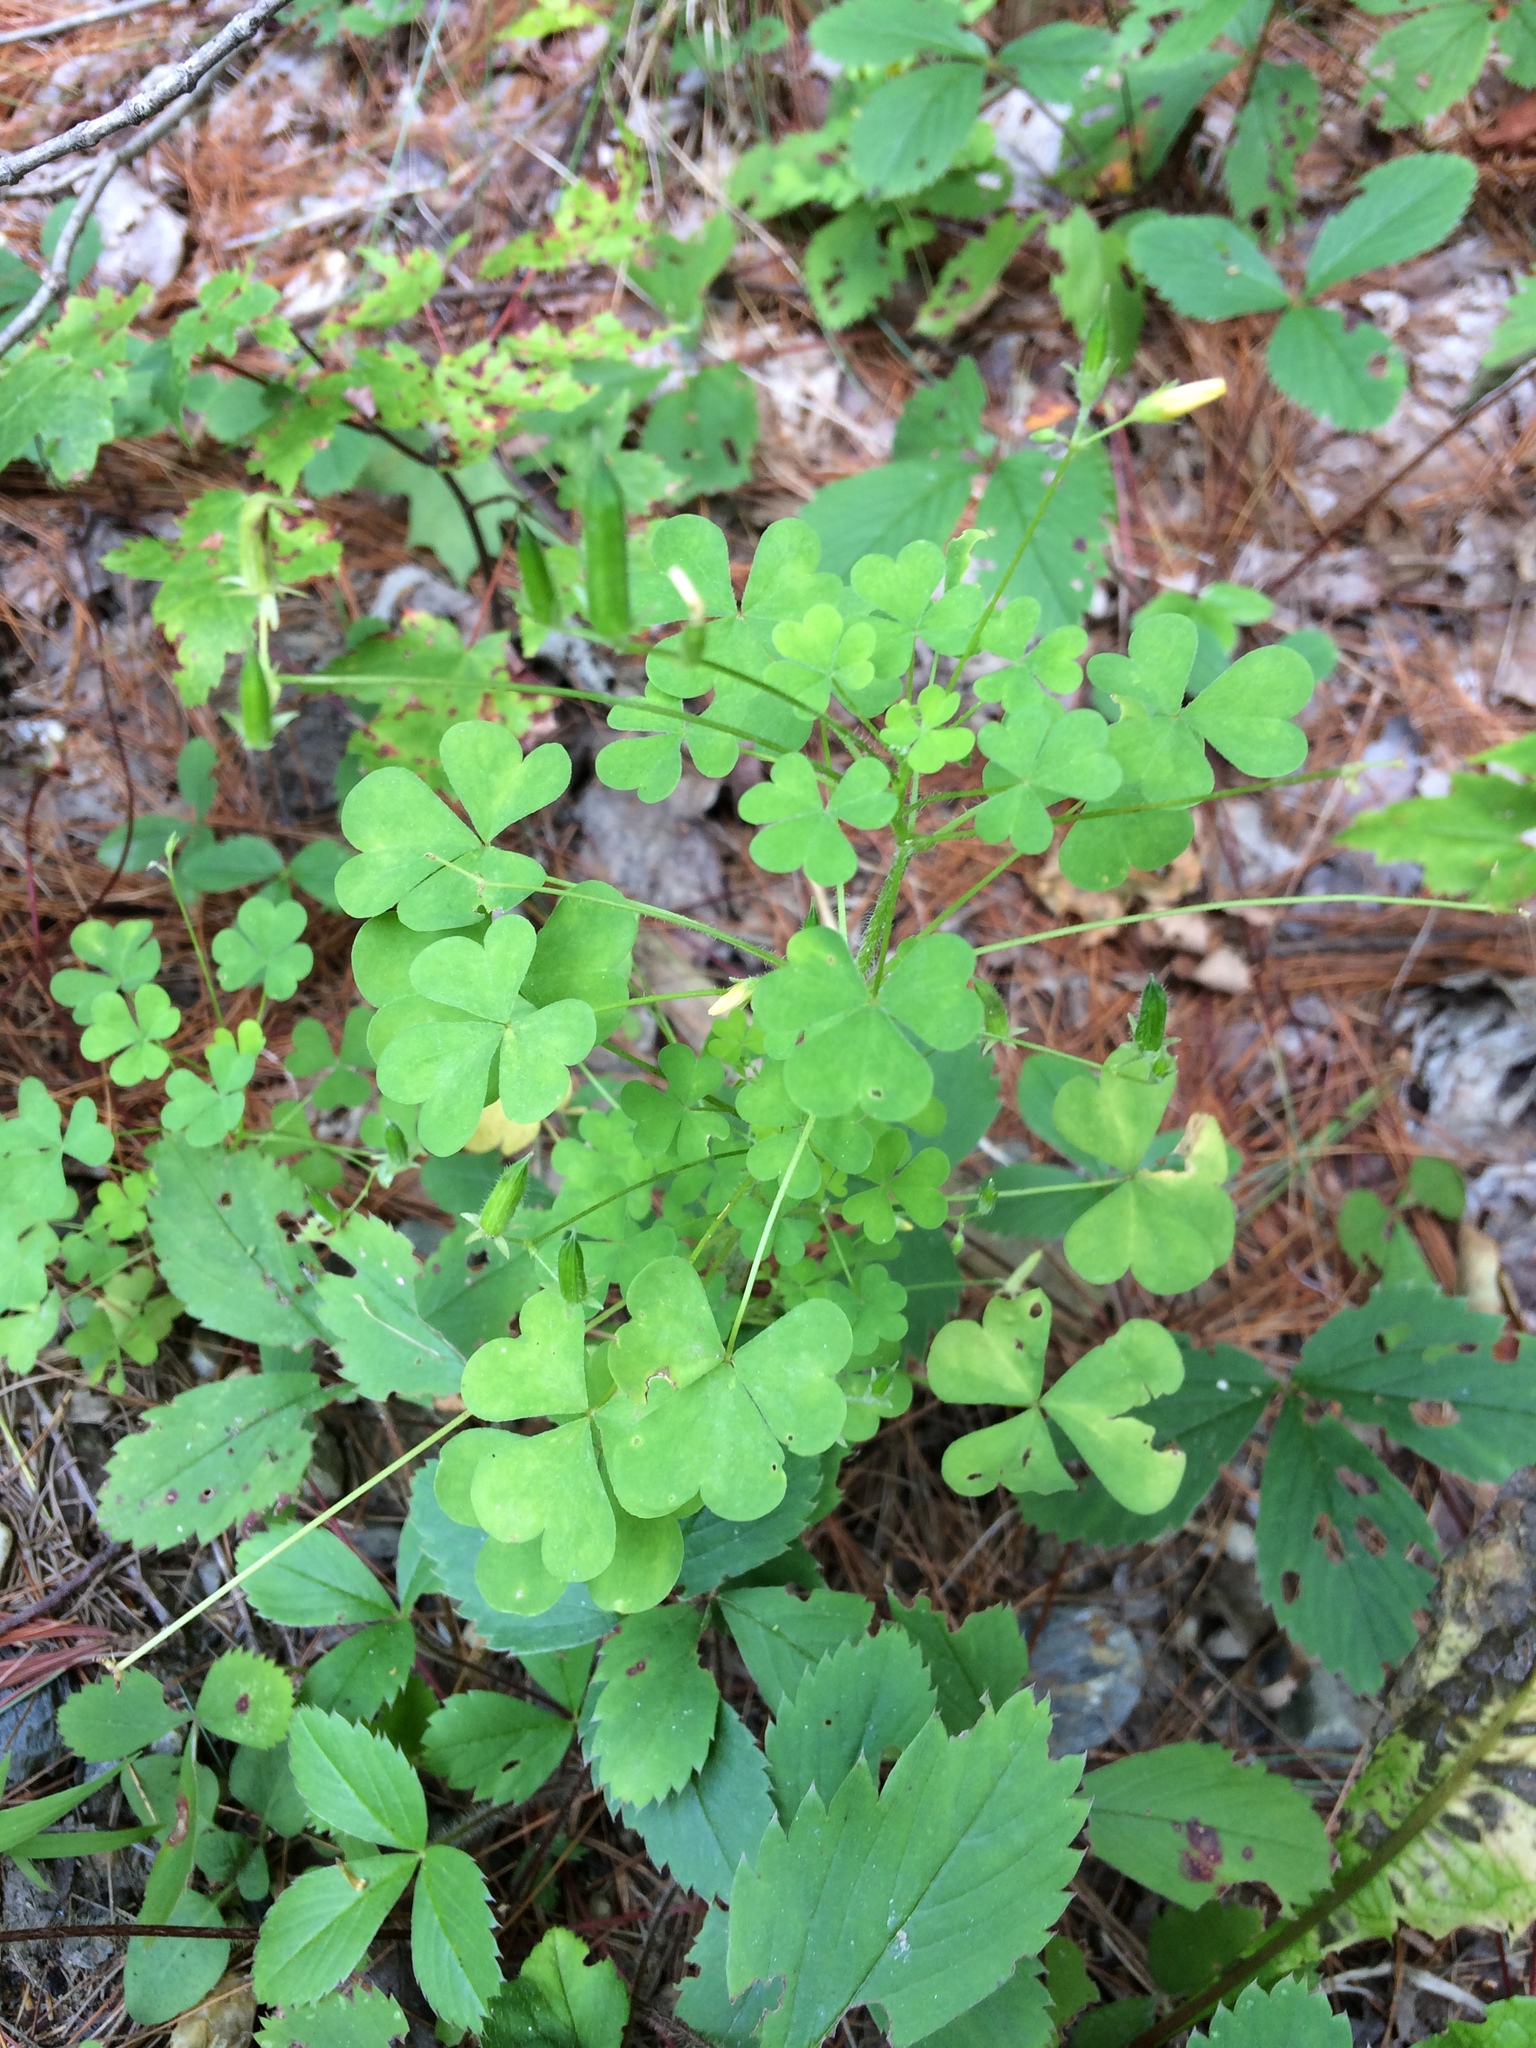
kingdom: Plantae
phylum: Tracheophyta
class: Magnoliopsida
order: Oxalidales
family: Oxalidaceae
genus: Oxalis
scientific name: Oxalis stricta
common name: Upright yellow-sorrel
